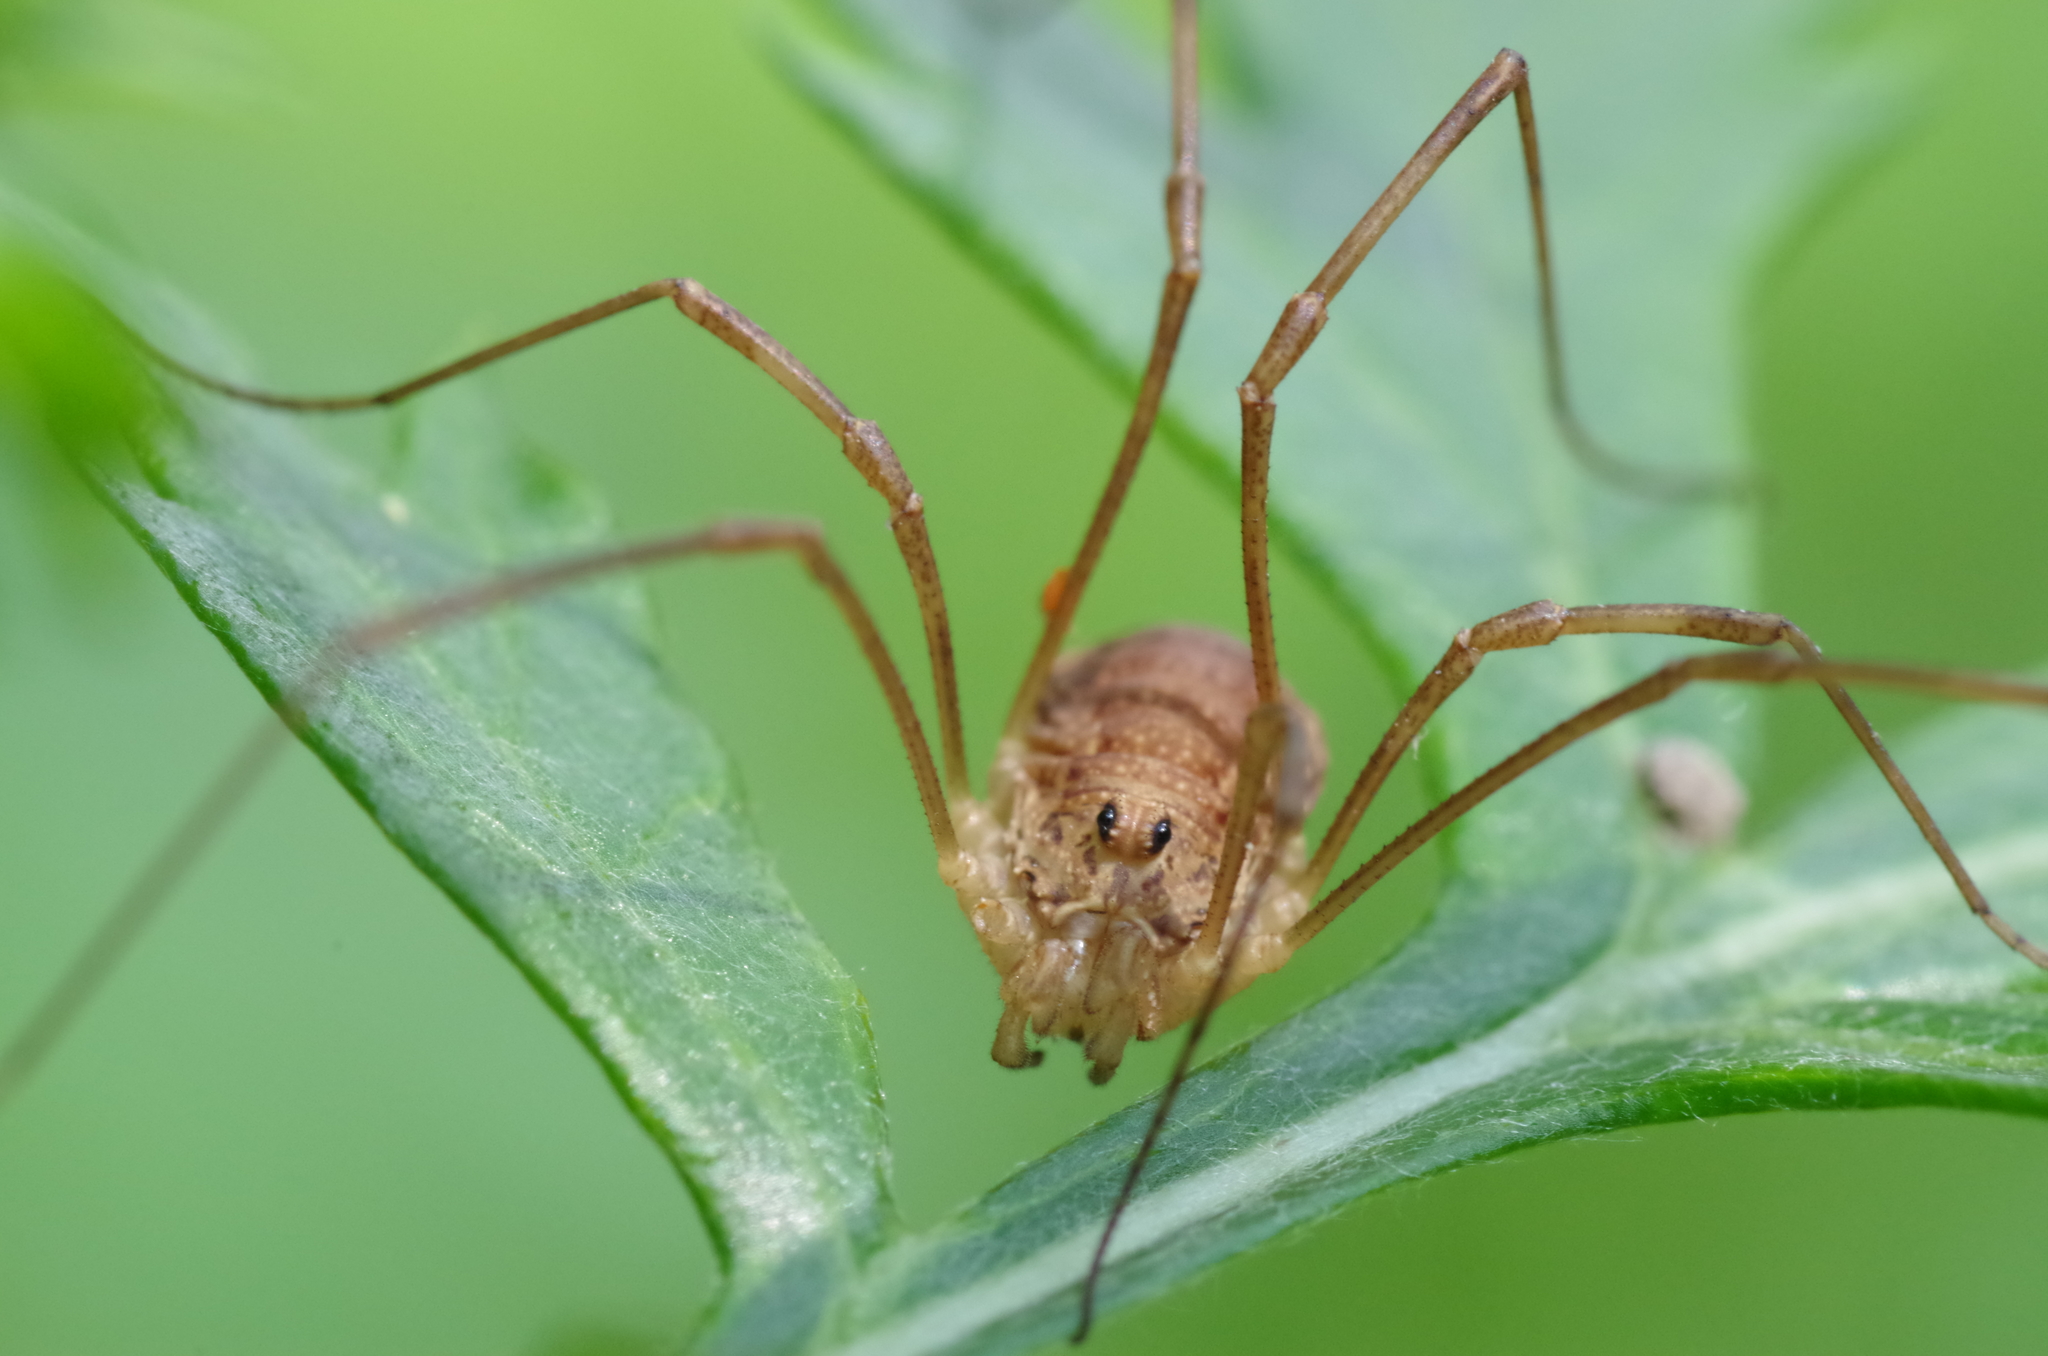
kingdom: Animalia
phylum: Arthropoda
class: Arachnida
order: Opiliones
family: Phalangiidae
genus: Rilaena
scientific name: Rilaena triangularis
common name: Spring harvestman
